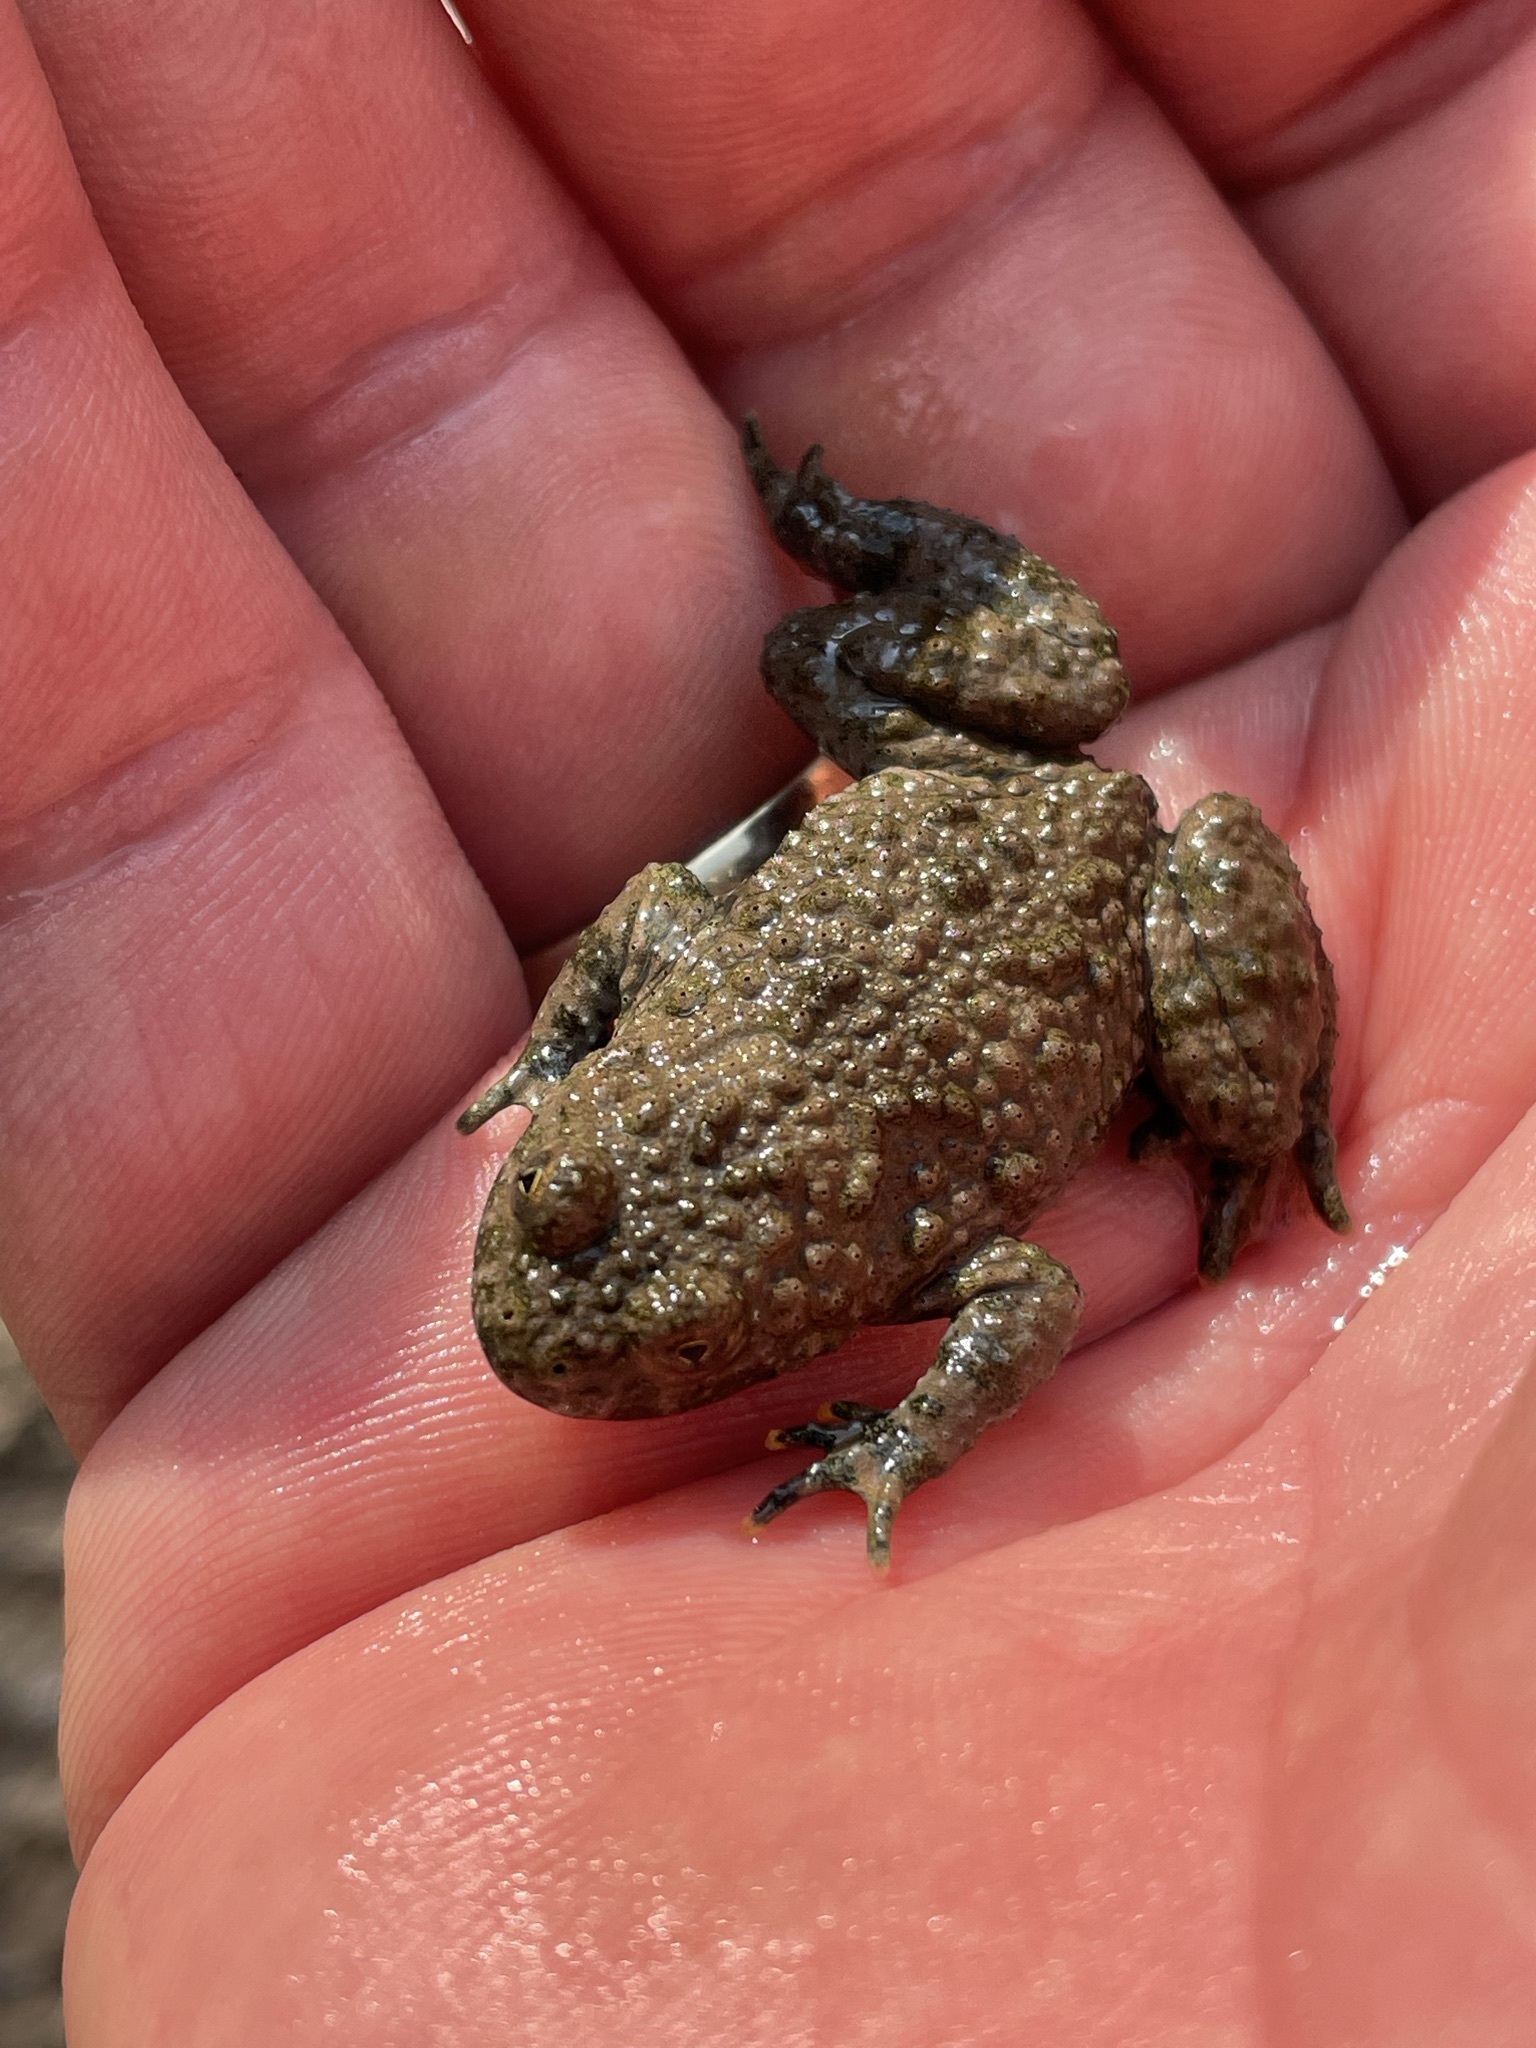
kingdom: Animalia
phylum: Chordata
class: Amphibia
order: Anura
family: Bombinatoridae
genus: Bombina
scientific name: Bombina variegata
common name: Yellow-bellied toad
